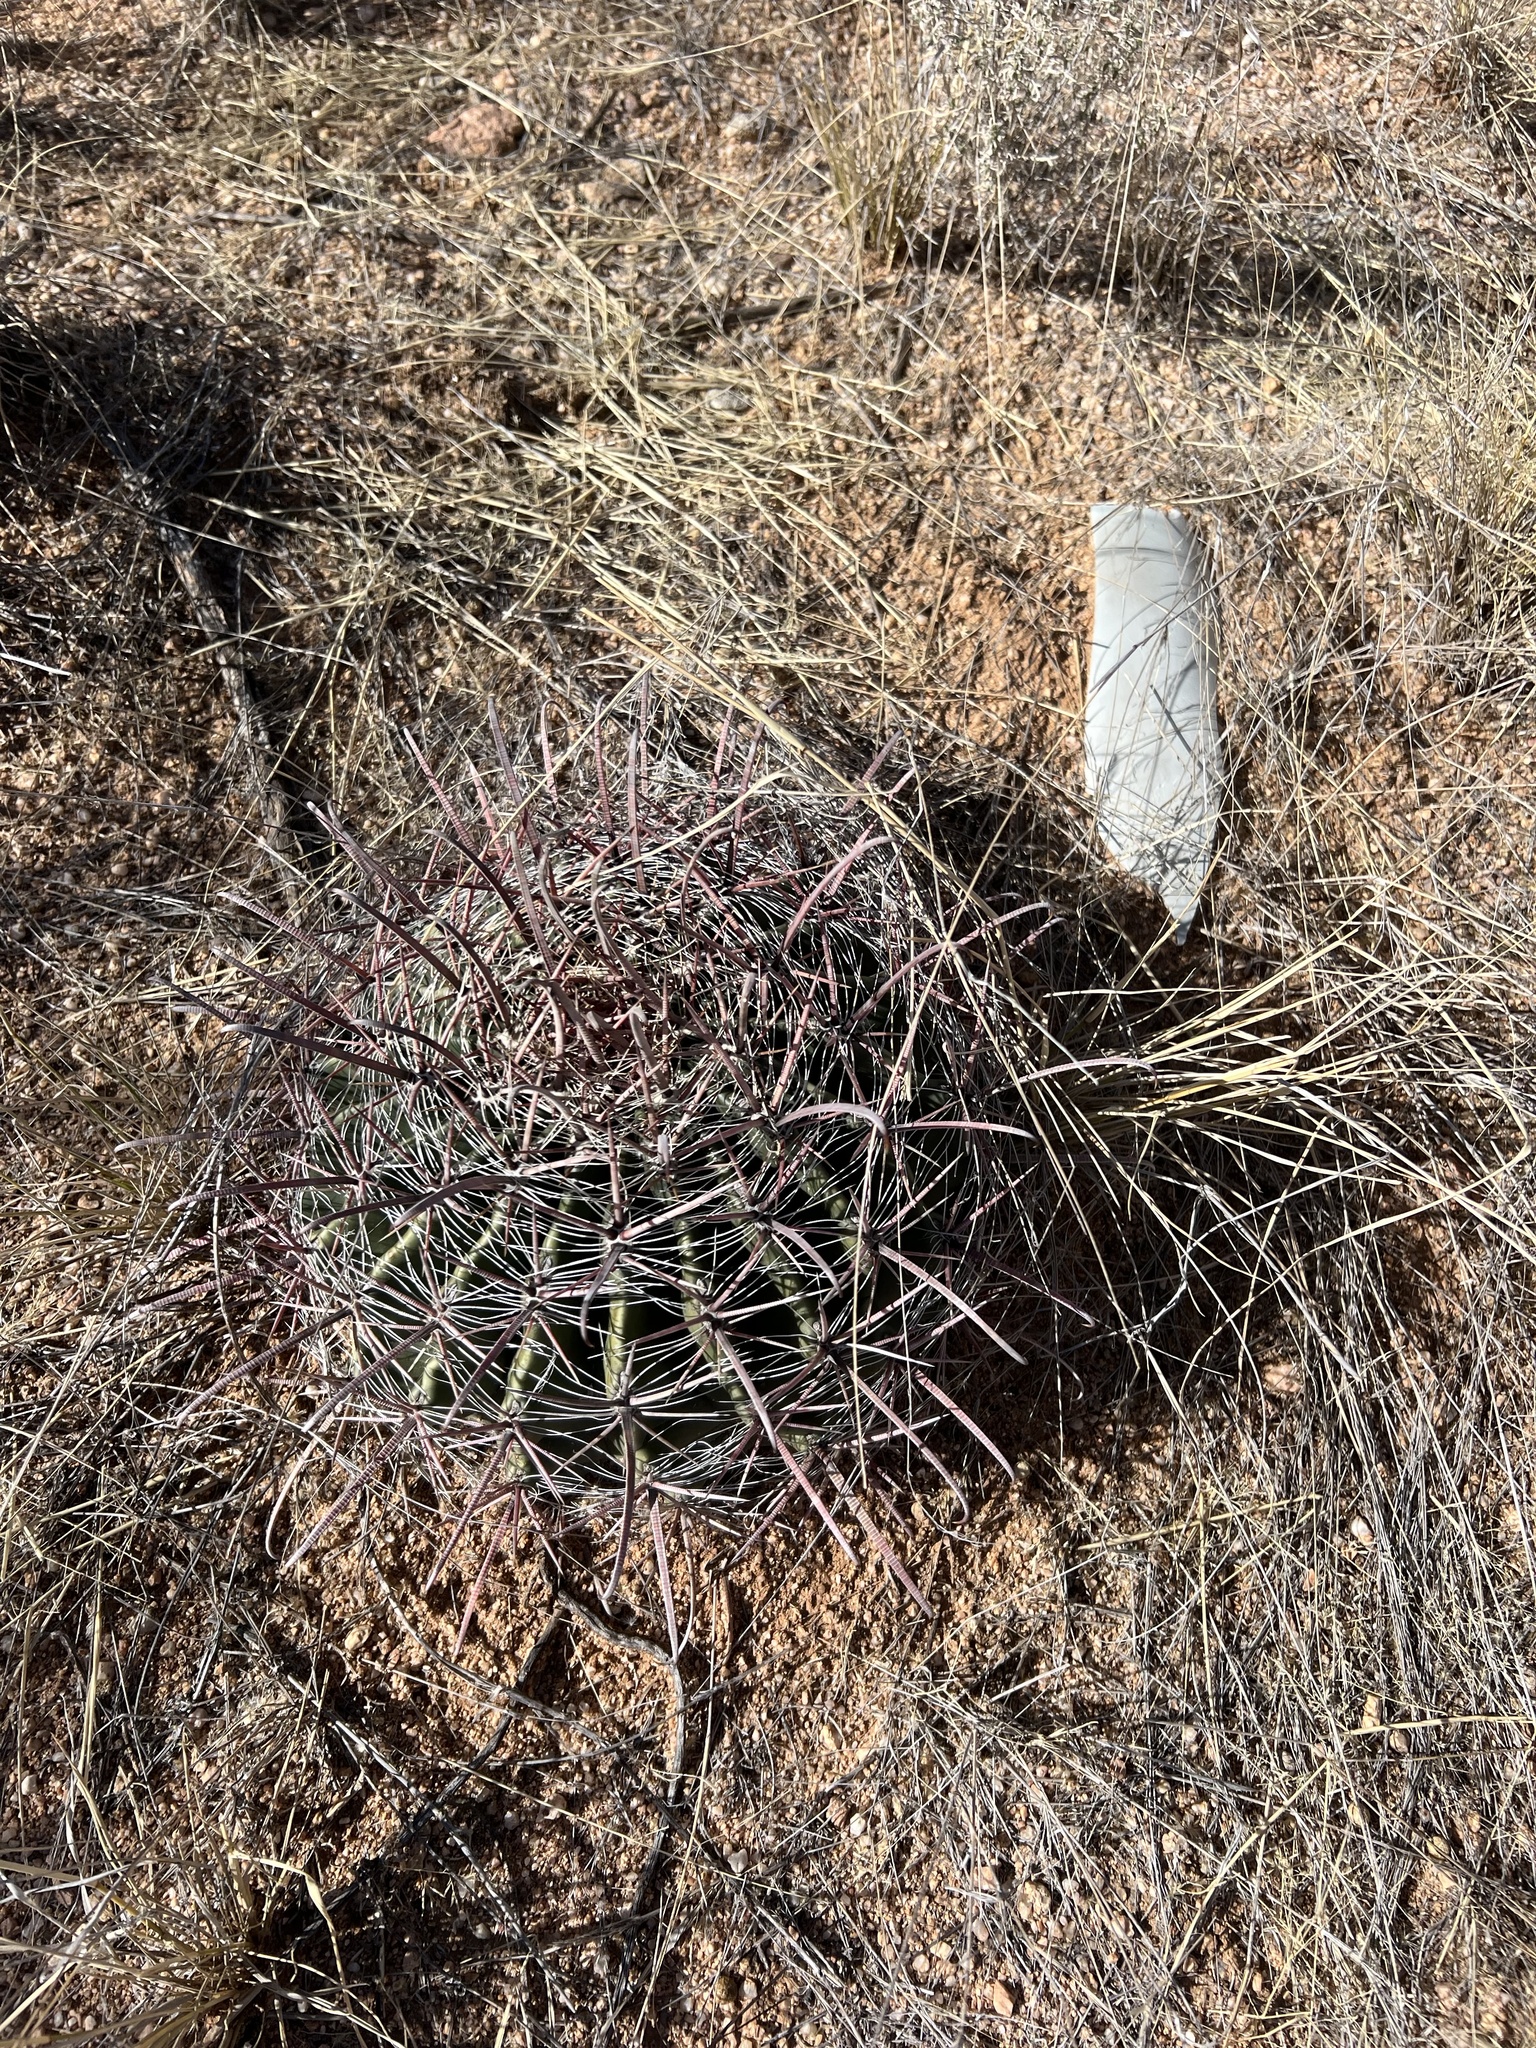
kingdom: Plantae
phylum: Tracheophyta
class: Magnoliopsida
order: Caryophyllales
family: Cactaceae
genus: Ferocactus
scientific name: Ferocactus wislizeni
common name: Candy barrel cactus
